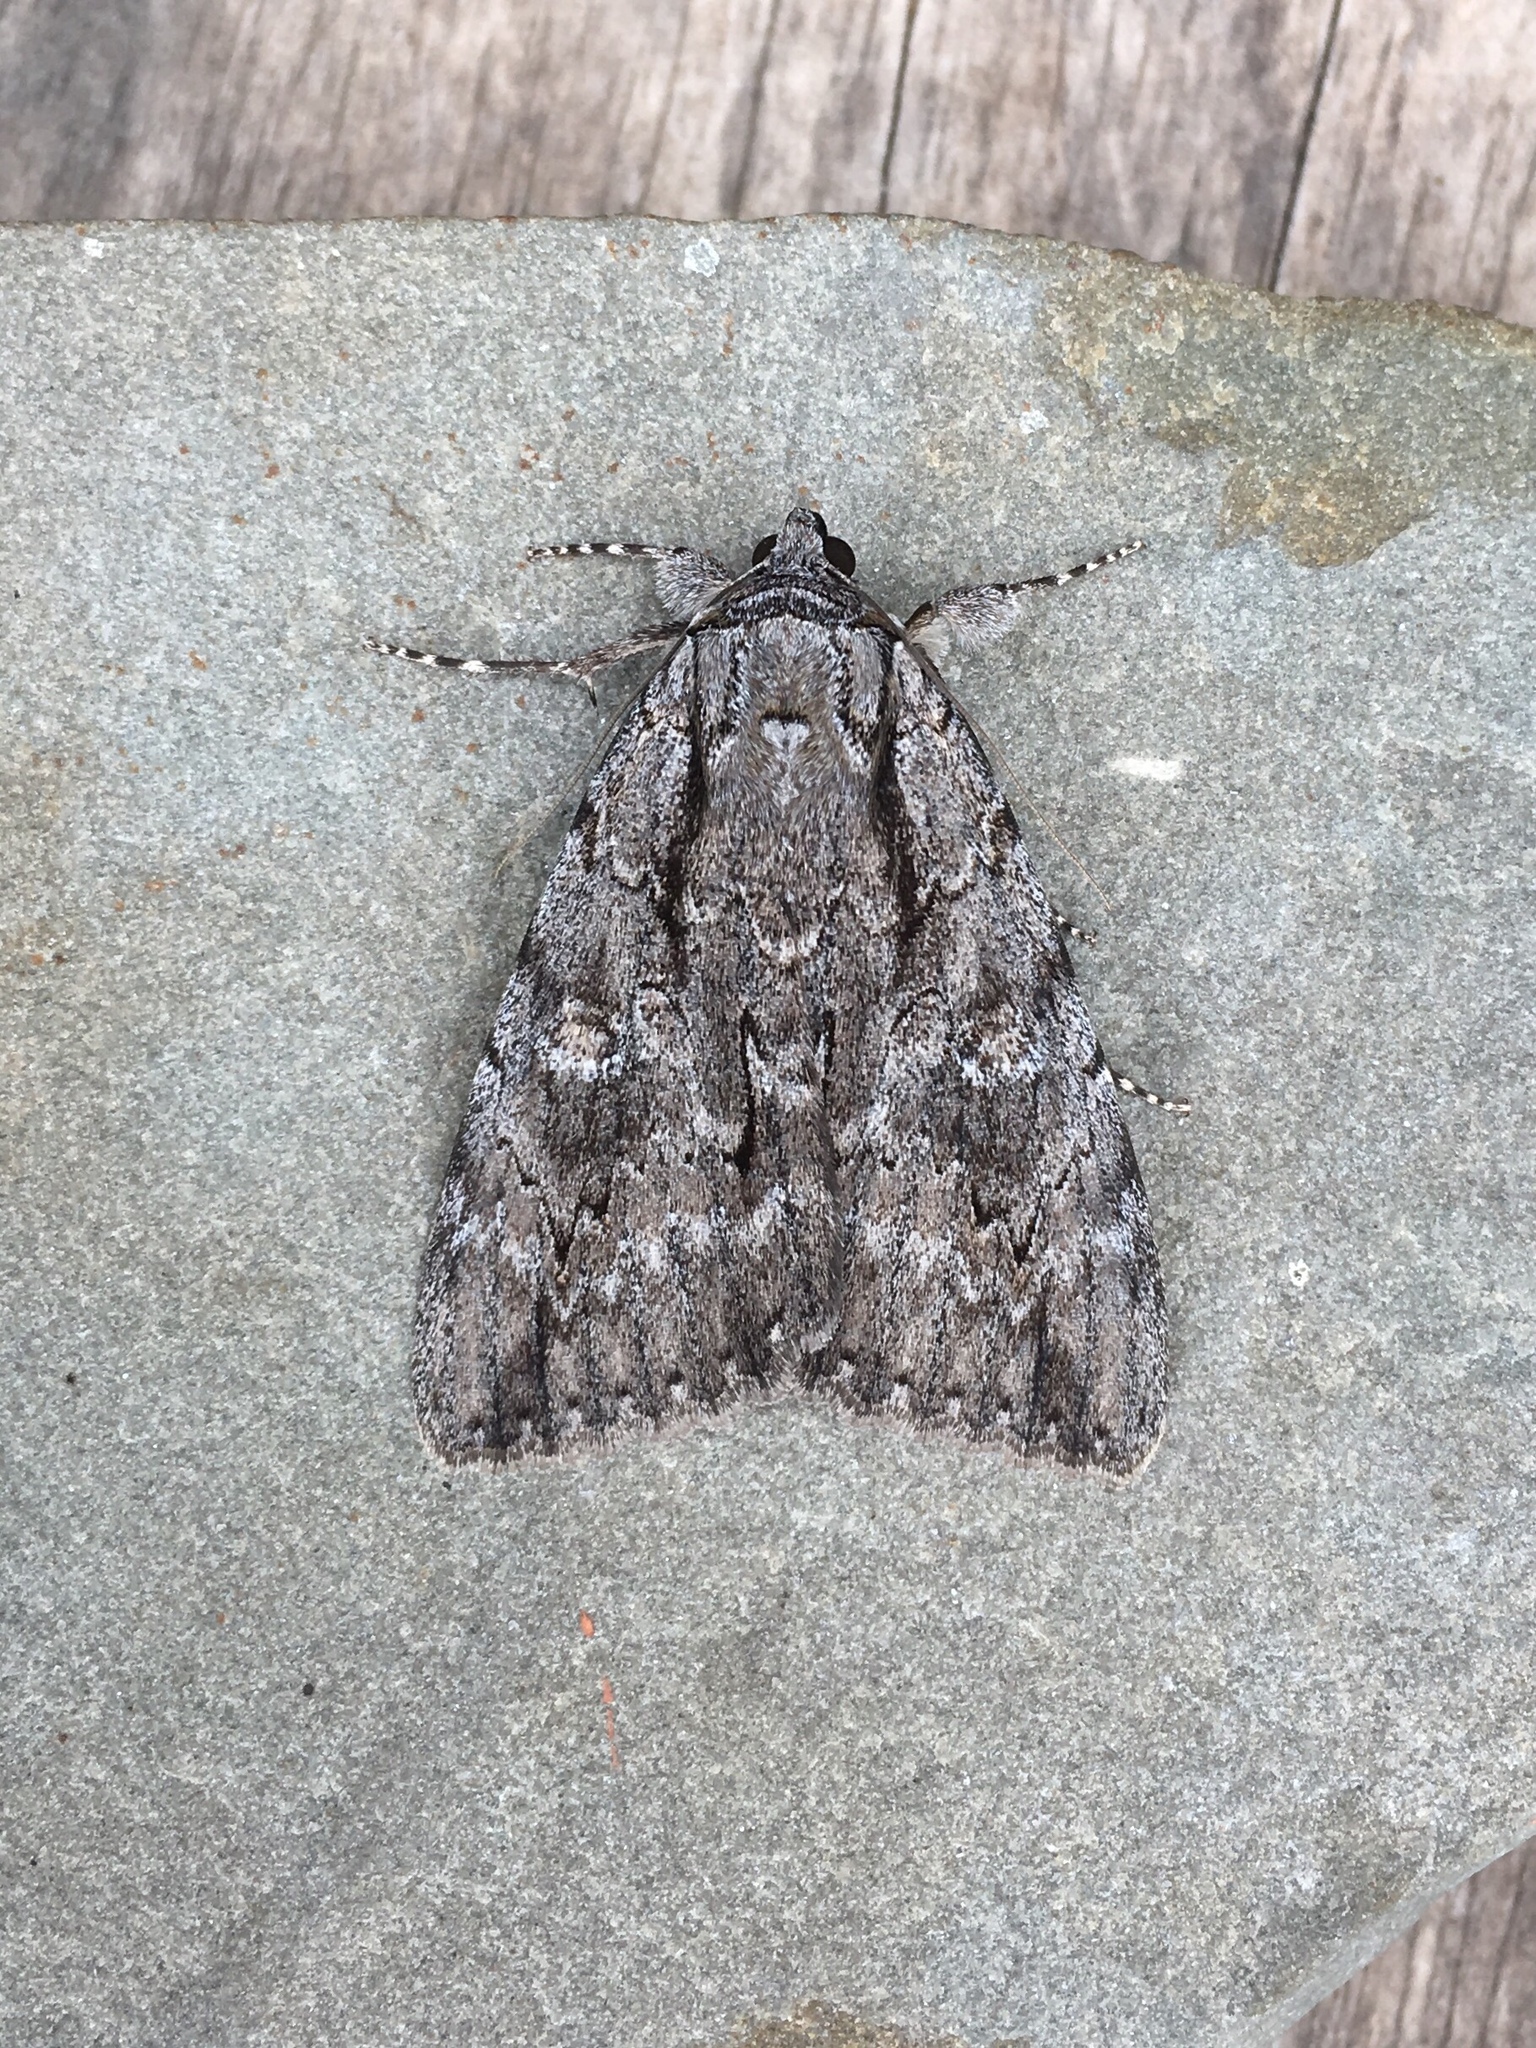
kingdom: Animalia
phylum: Arthropoda
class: Insecta
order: Lepidoptera
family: Erebidae
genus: Catocala
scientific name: Catocala habilis
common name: Habilis underwing
